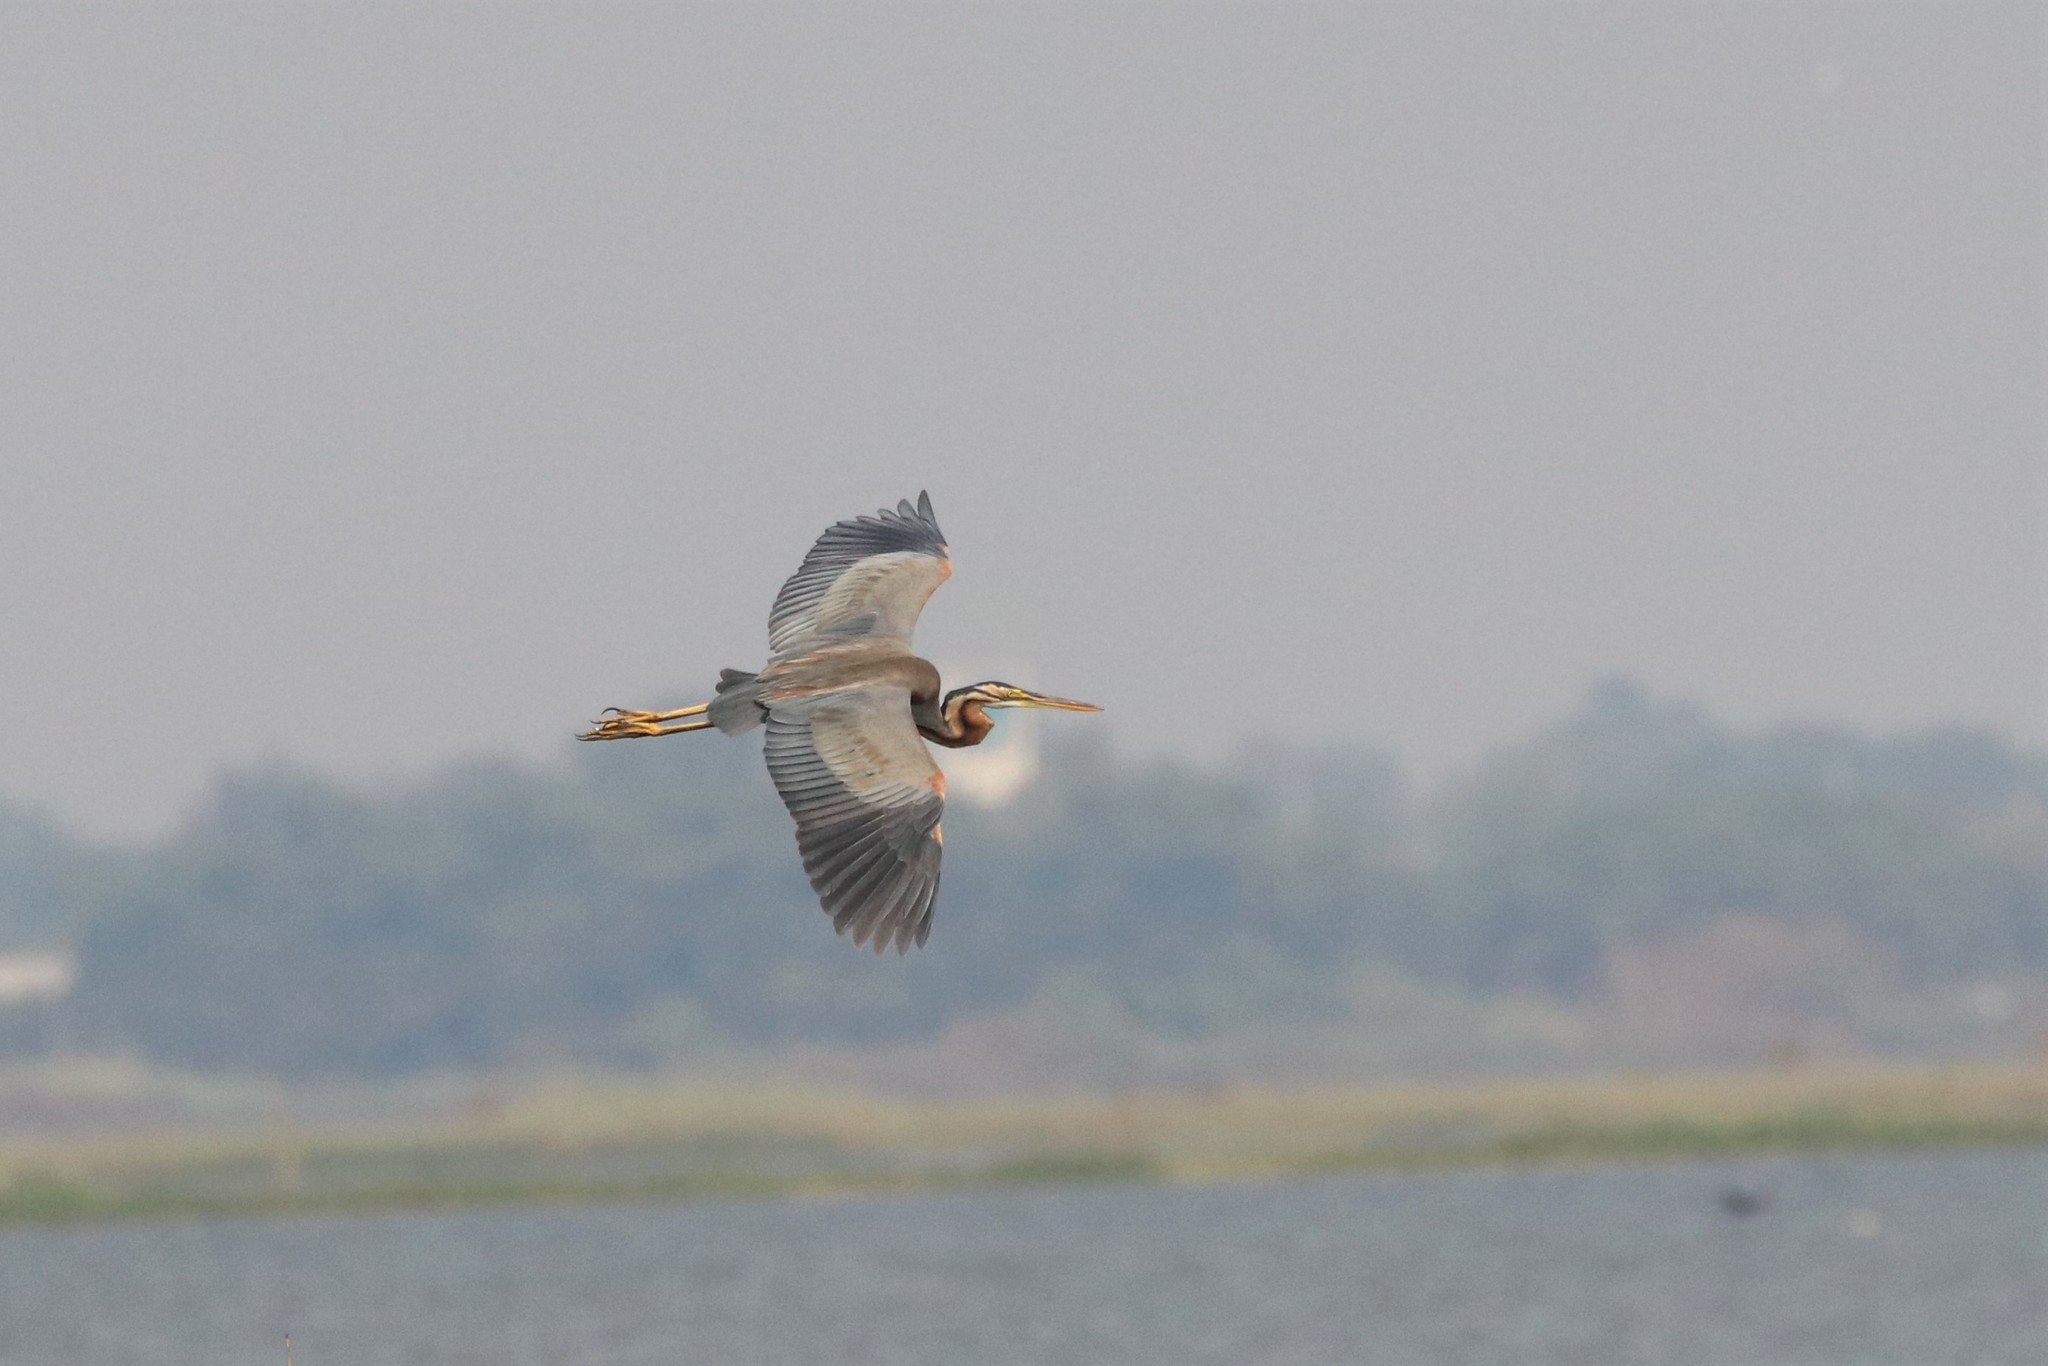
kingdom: Animalia
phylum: Chordata
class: Aves
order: Pelecaniformes
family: Ardeidae
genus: Ardea
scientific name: Ardea purpurea
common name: Purple heron
